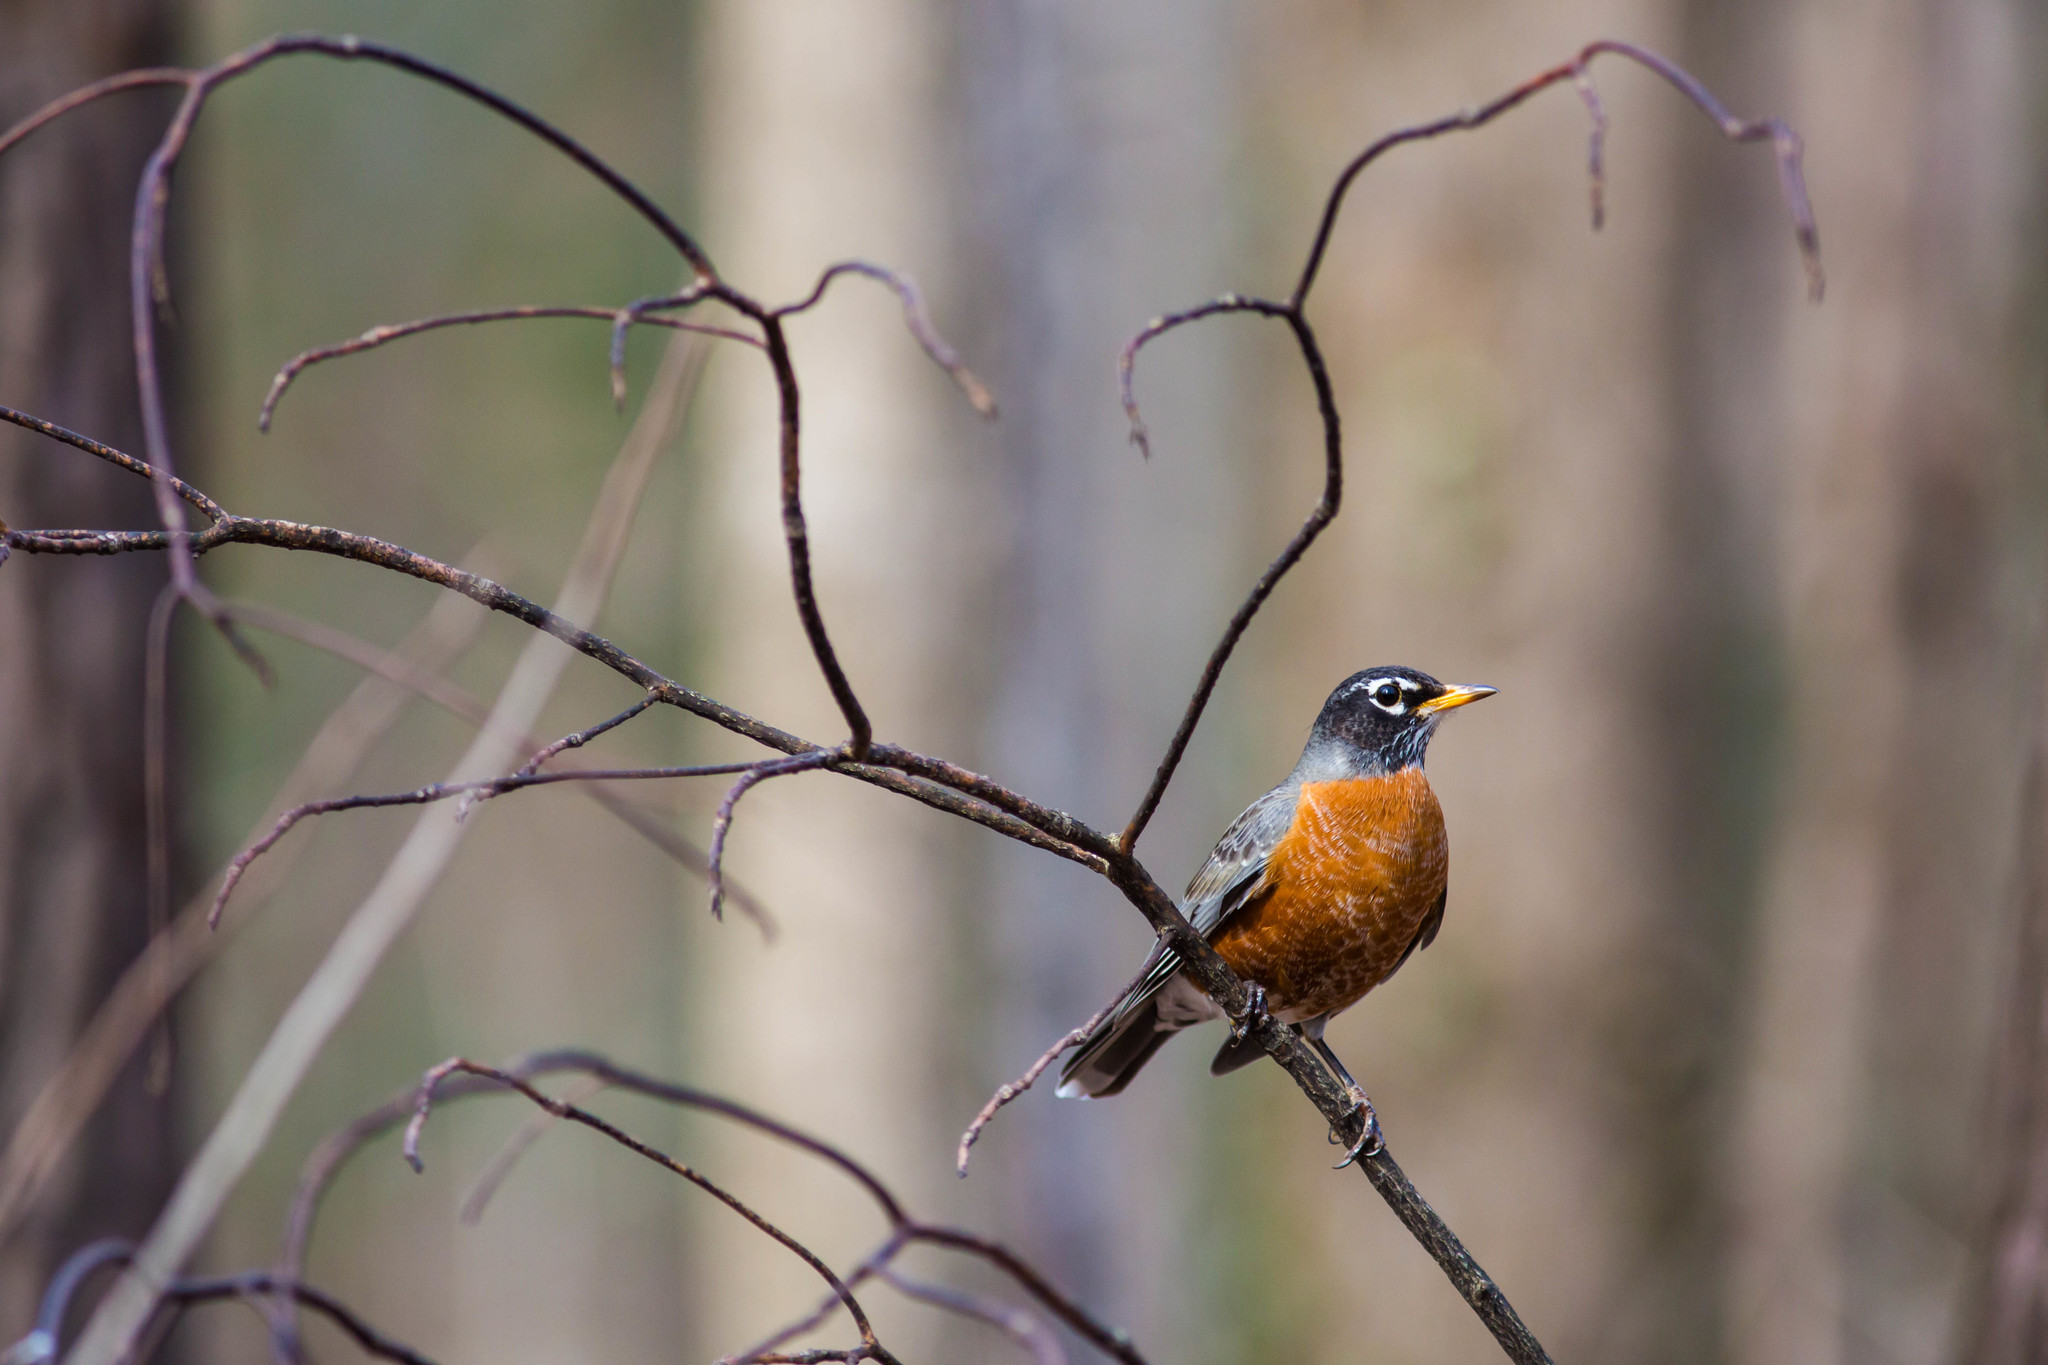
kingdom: Animalia
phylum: Chordata
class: Aves
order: Passeriformes
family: Turdidae
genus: Turdus
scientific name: Turdus migratorius
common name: American robin
